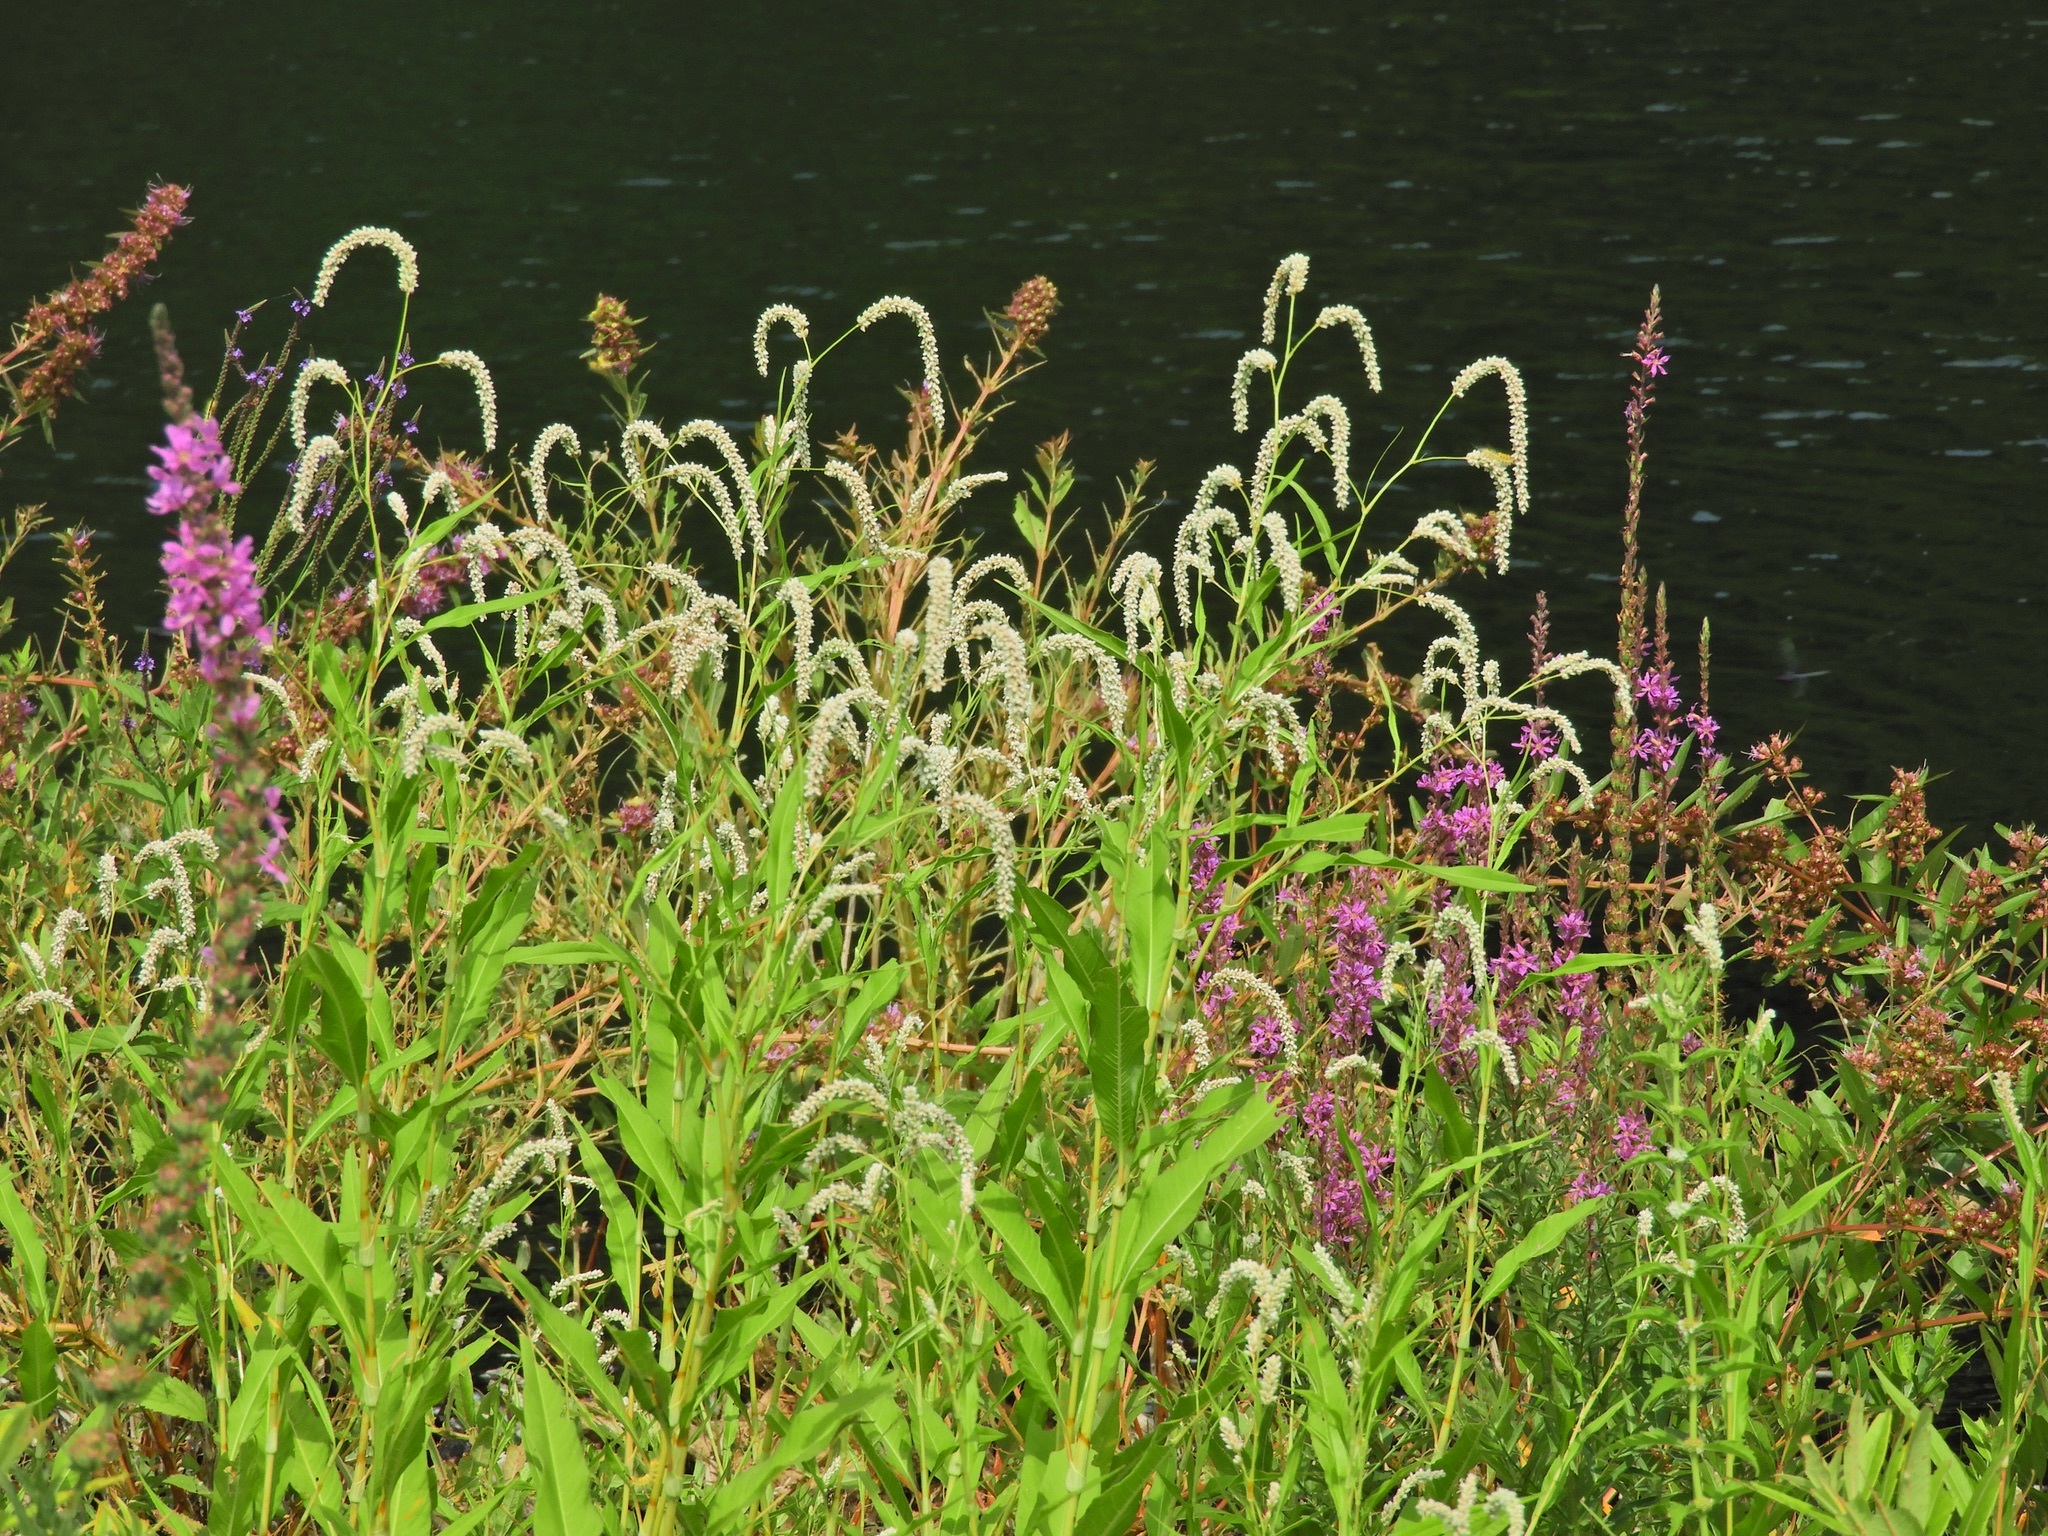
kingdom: Plantae
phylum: Tracheophyta
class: Magnoliopsida
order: Caryophyllales
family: Polygonaceae
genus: Persicaria
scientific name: Persicaria lapathifolia
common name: Curlytop knotweed
